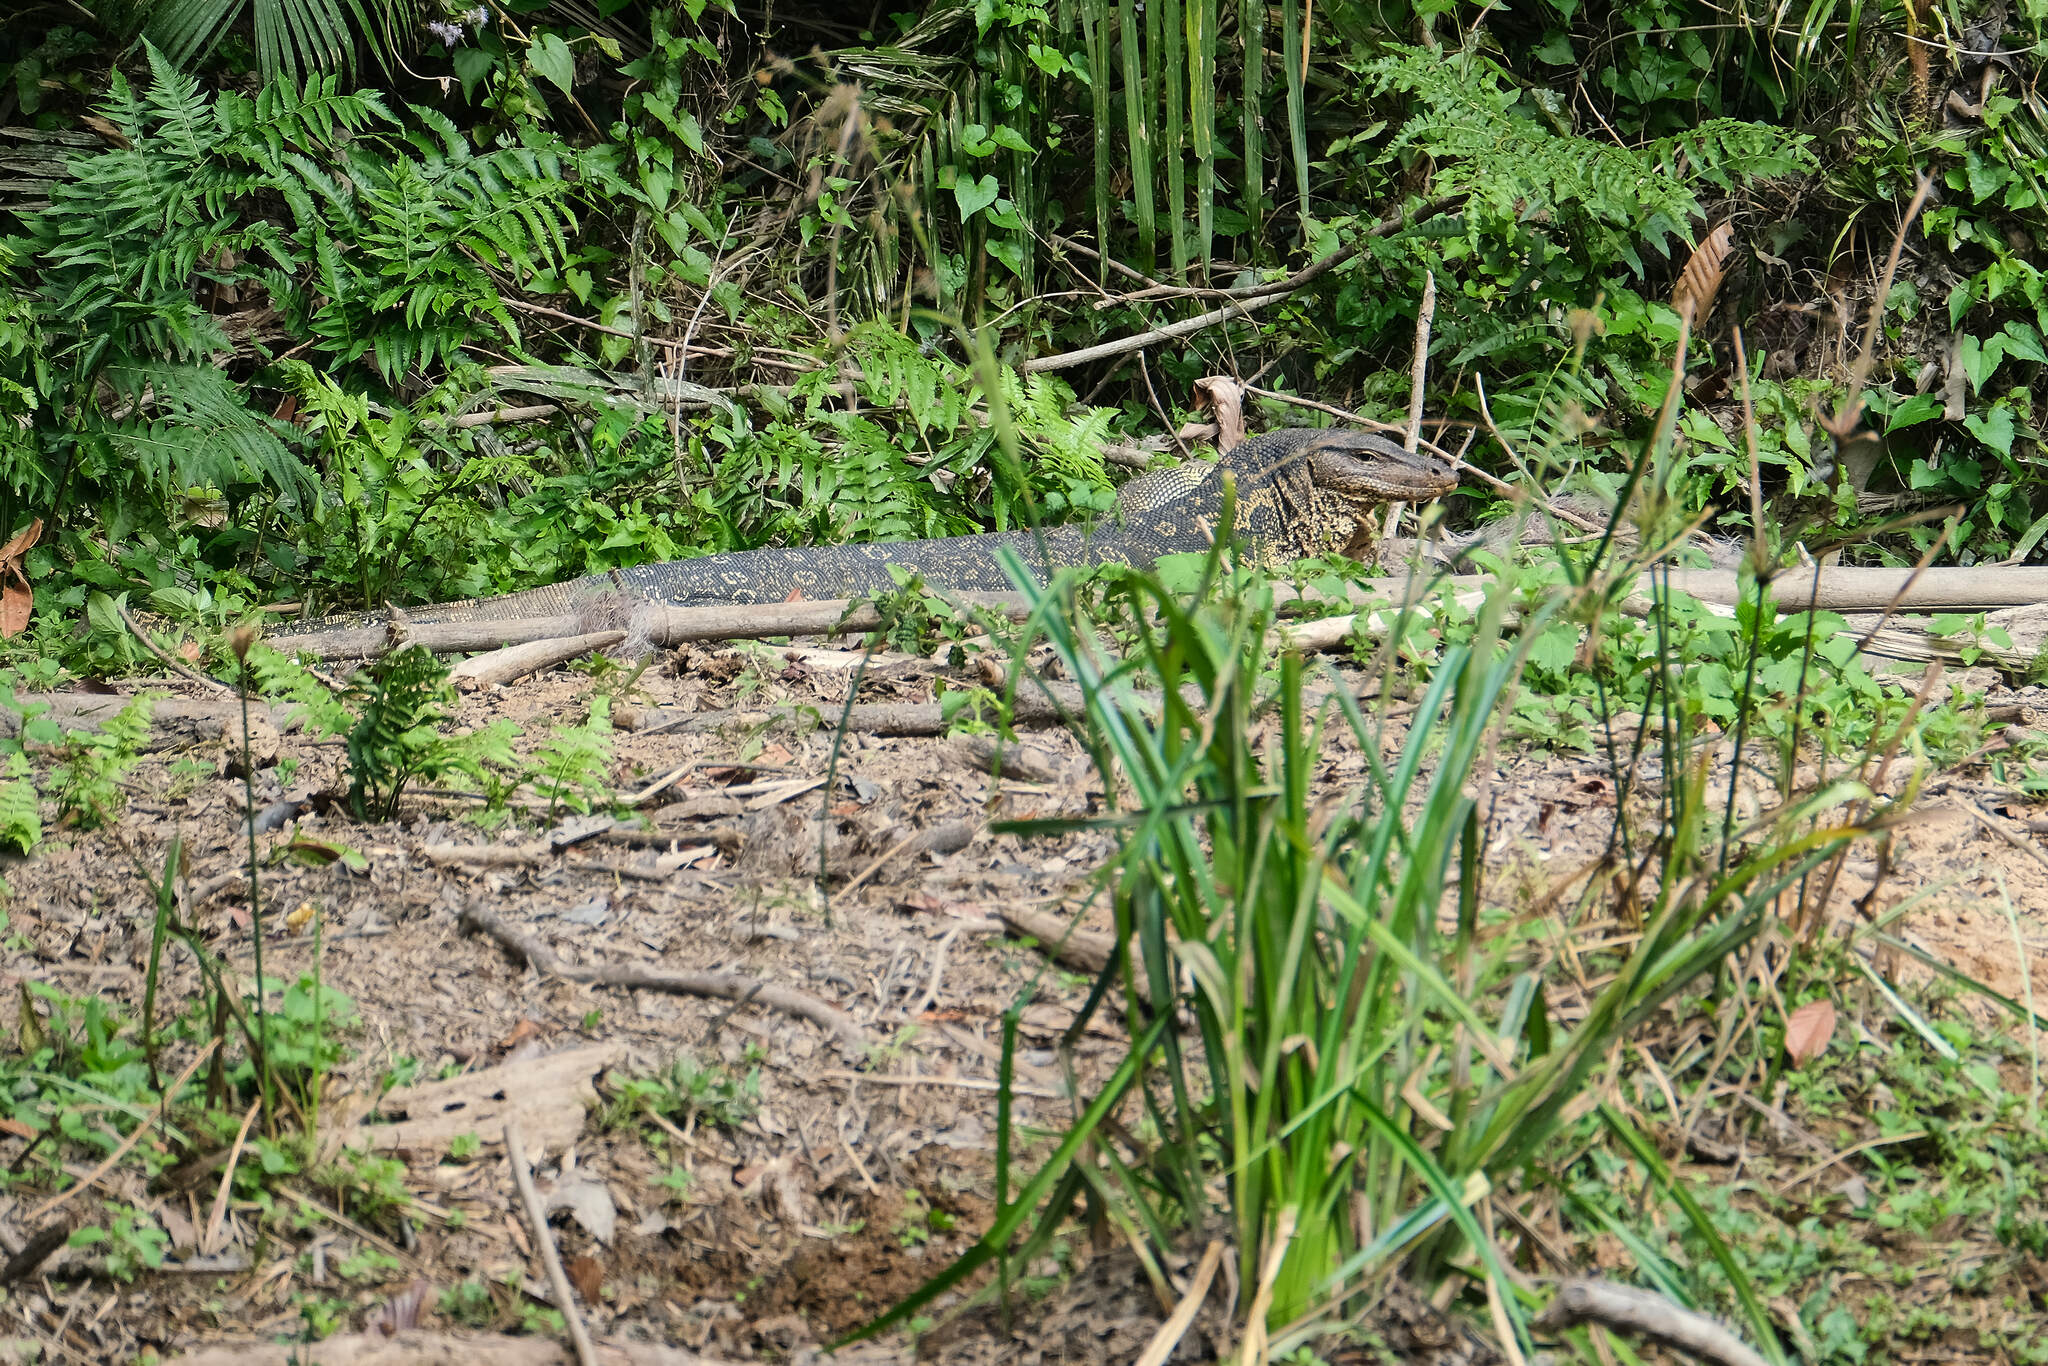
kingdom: Animalia
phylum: Chordata
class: Squamata
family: Varanidae
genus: Varanus
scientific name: Varanus salvator
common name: Common water monitor
